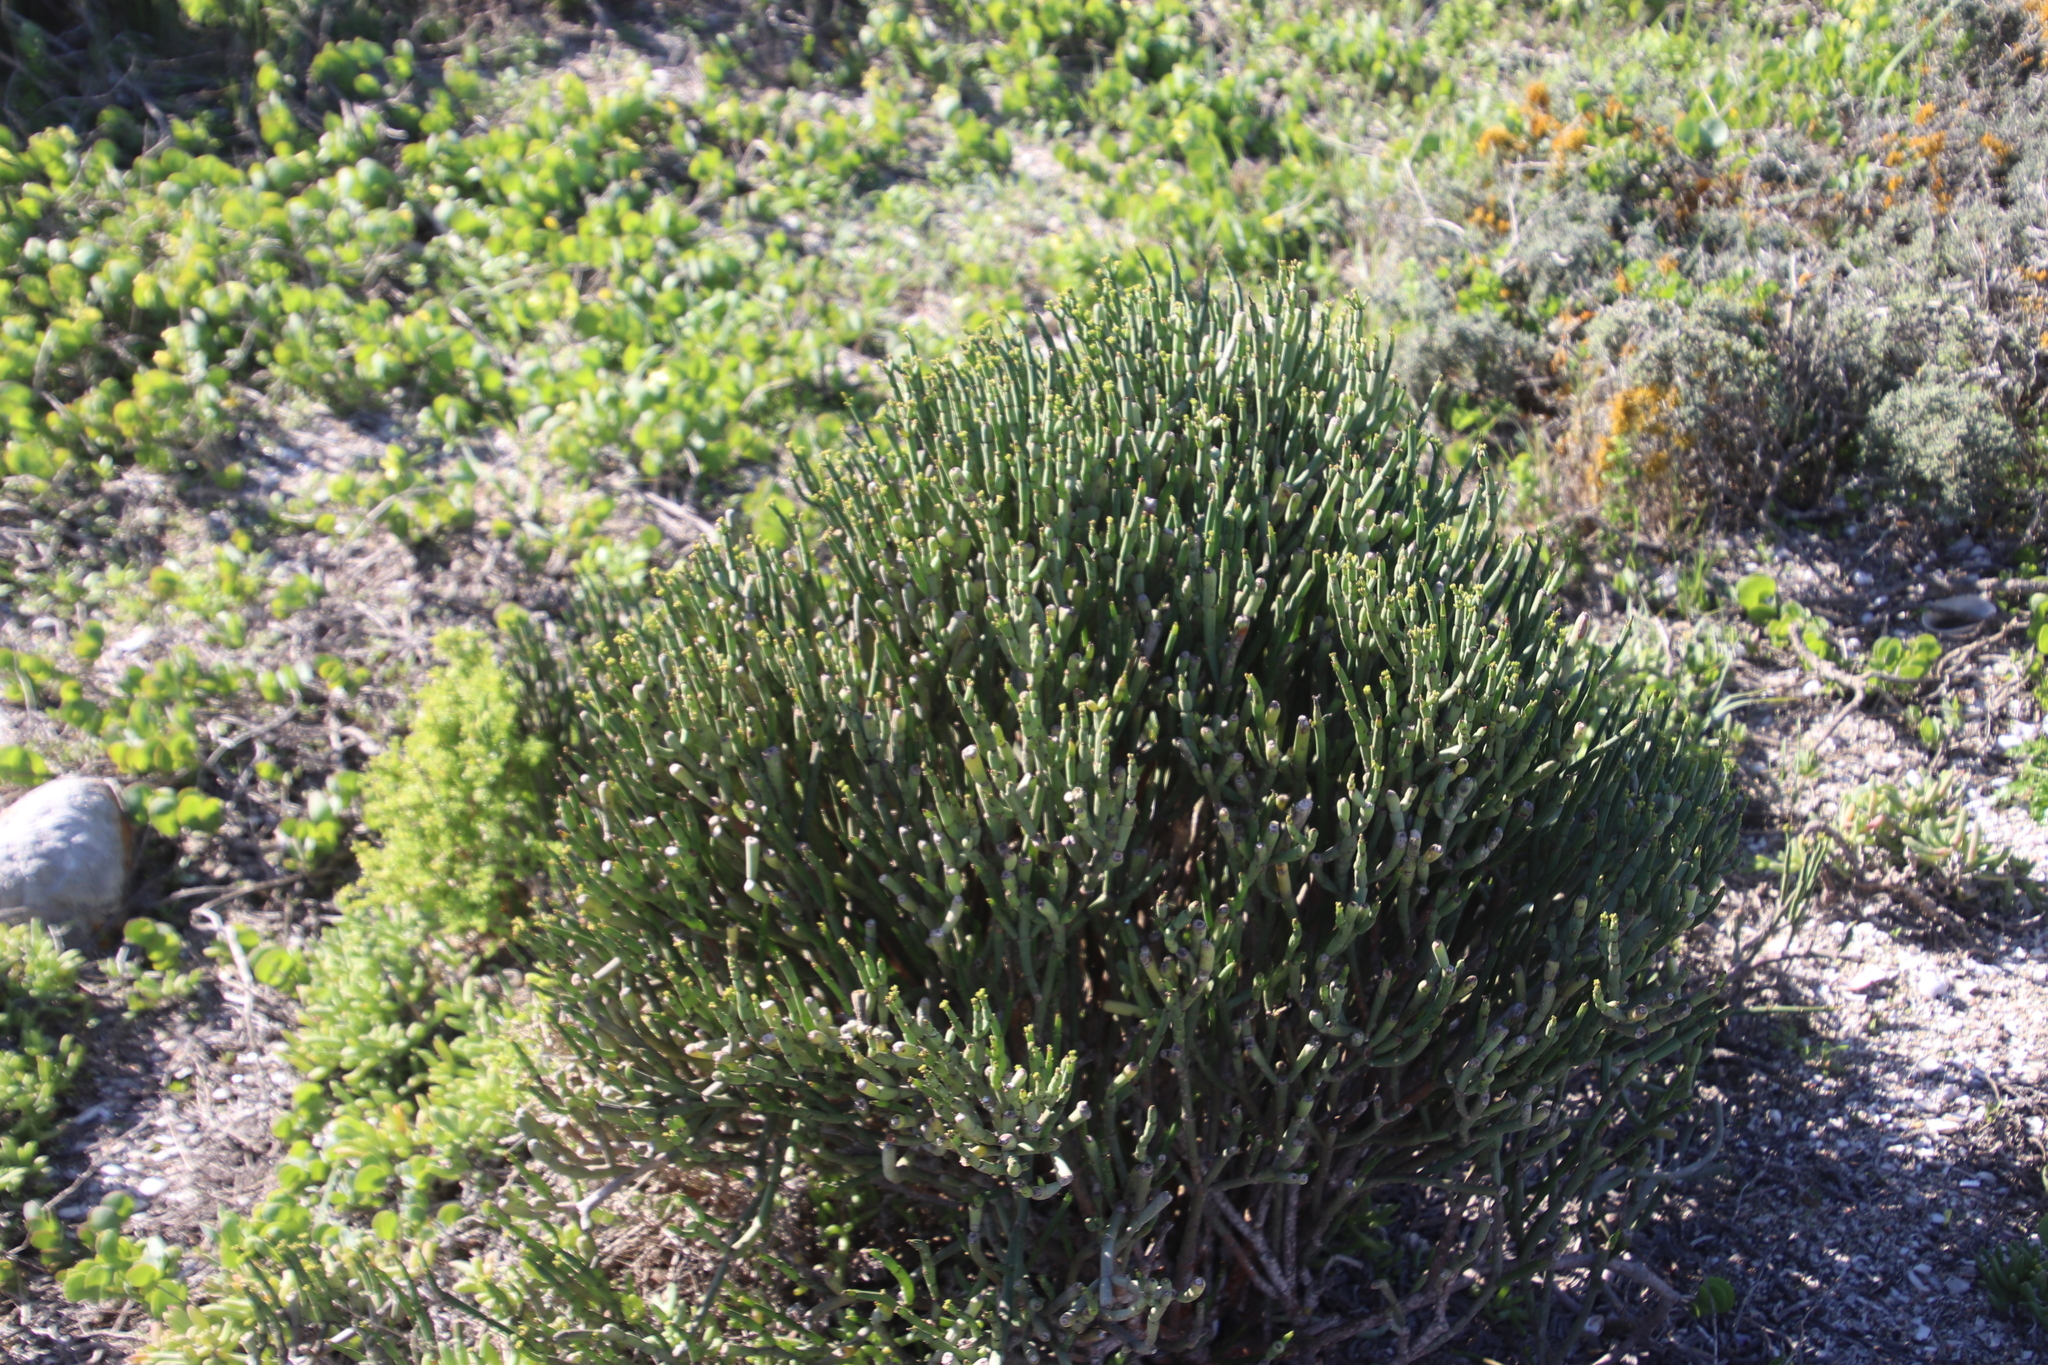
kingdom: Plantae
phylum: Tracheophyta
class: Magnoliopsida
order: Malpighiales
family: Euphorbiaceae
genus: Euphorbia
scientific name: Euphorbia burmanni
